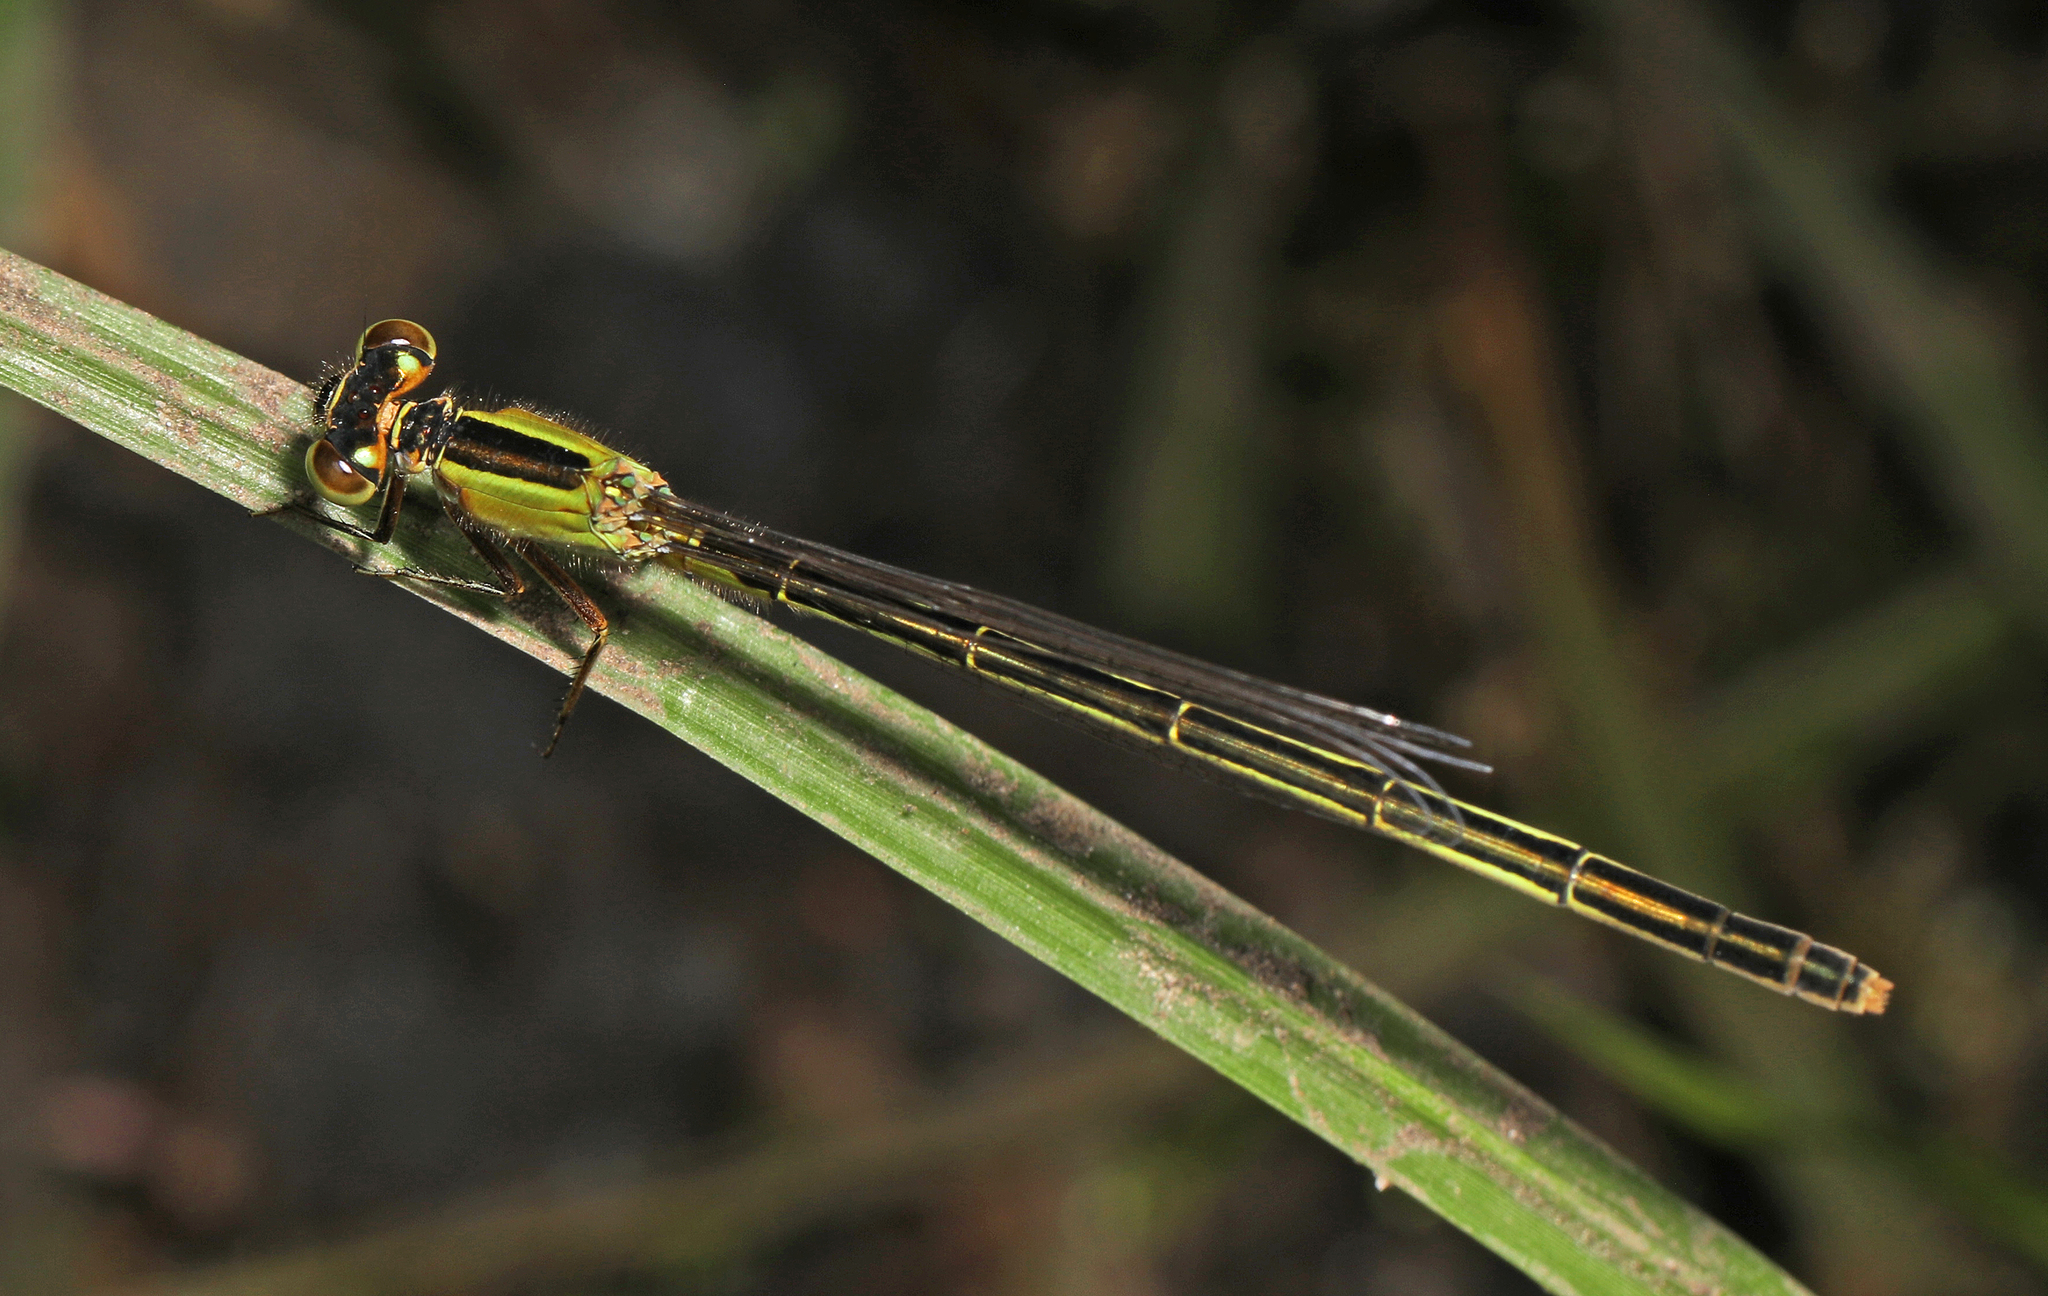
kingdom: Animalia
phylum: Arthropoda
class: Insecta
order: Odonata
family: Coenagrionidae
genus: Ischnura
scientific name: Ischnura ramburii
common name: Rambur's forktail
